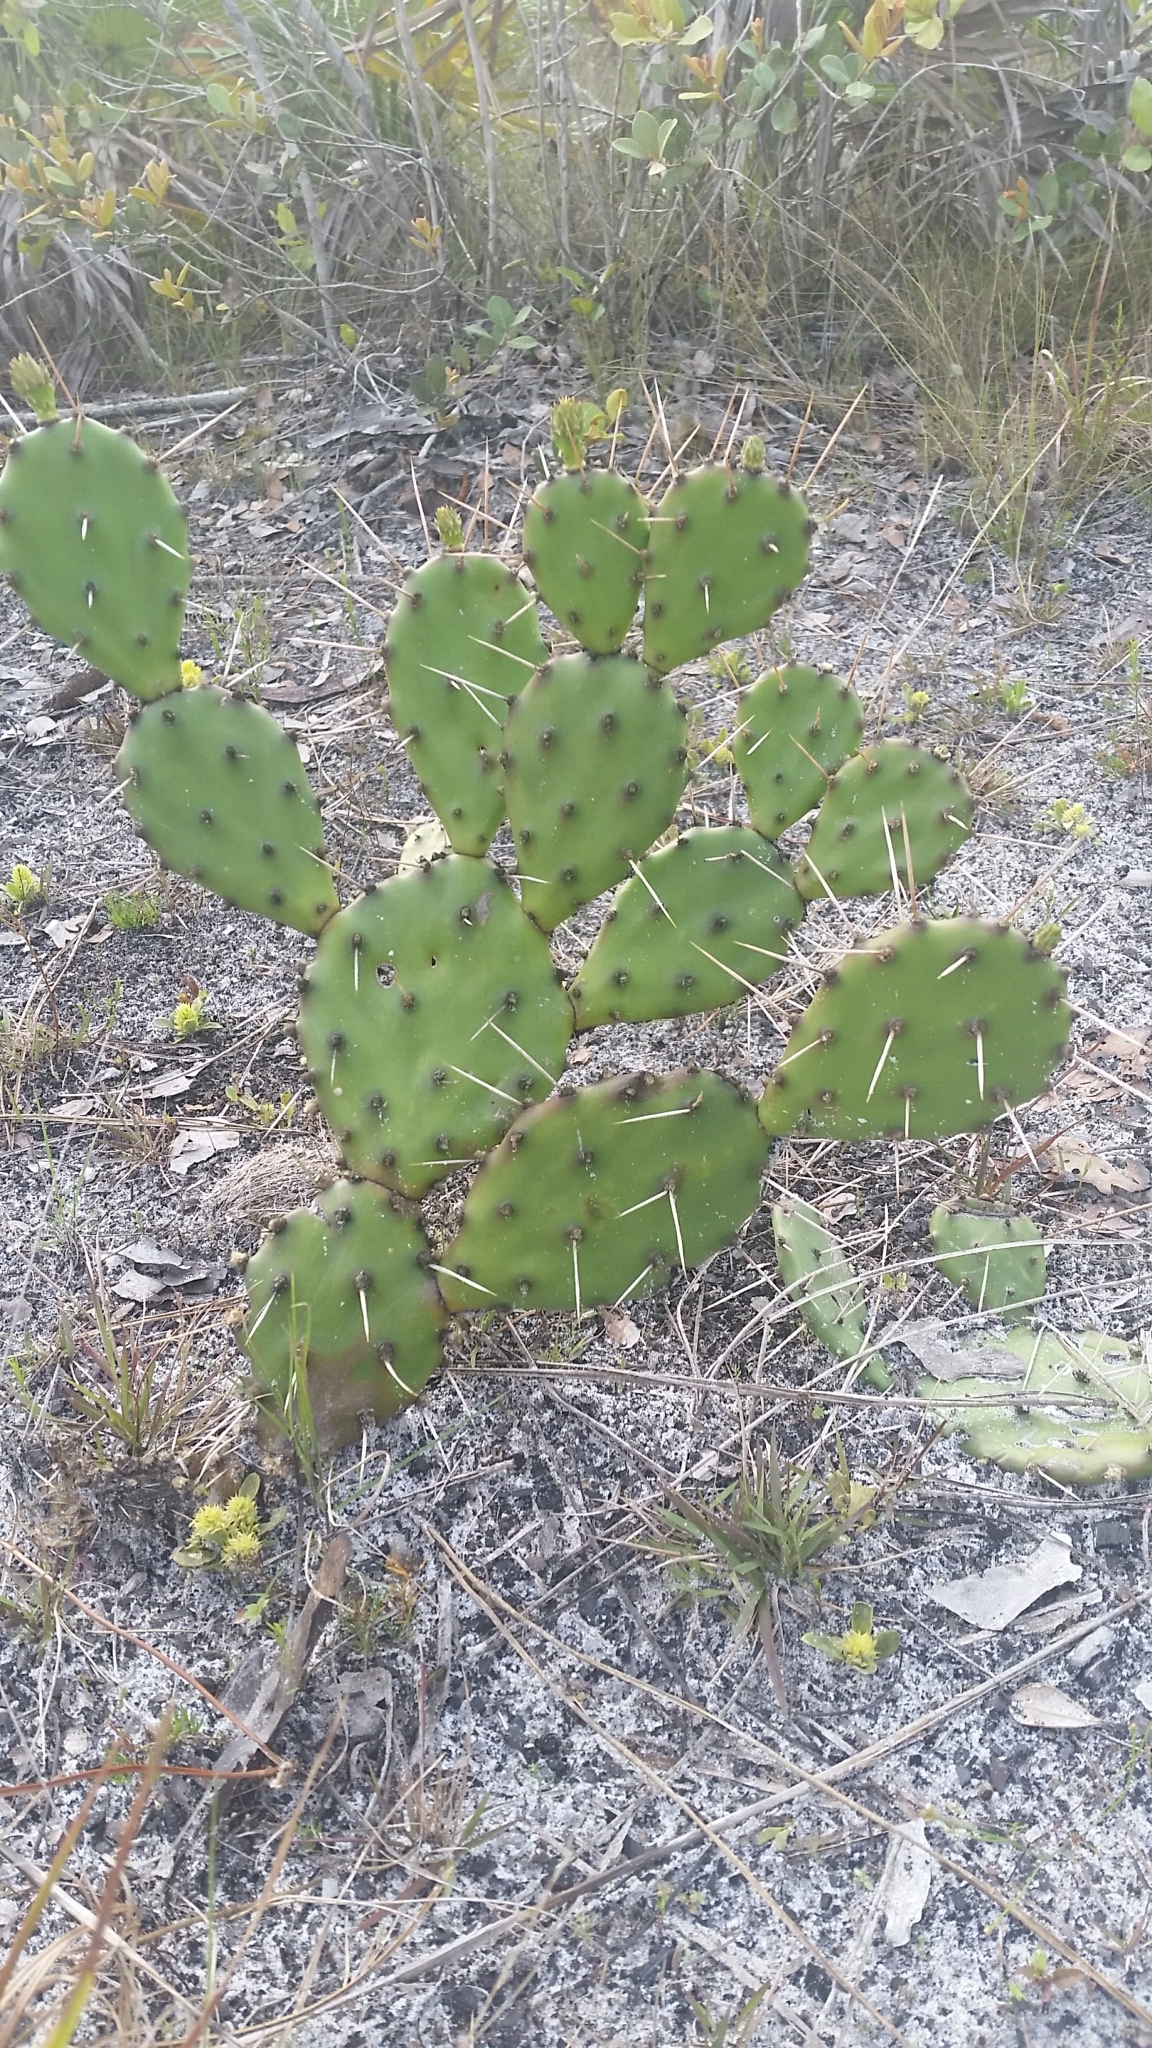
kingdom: Plantae
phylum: Tracheophyta
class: Magnoliopsida
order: Caryophyllales
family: Cactaceae
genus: Opuntia
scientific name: Opuntia austrina
